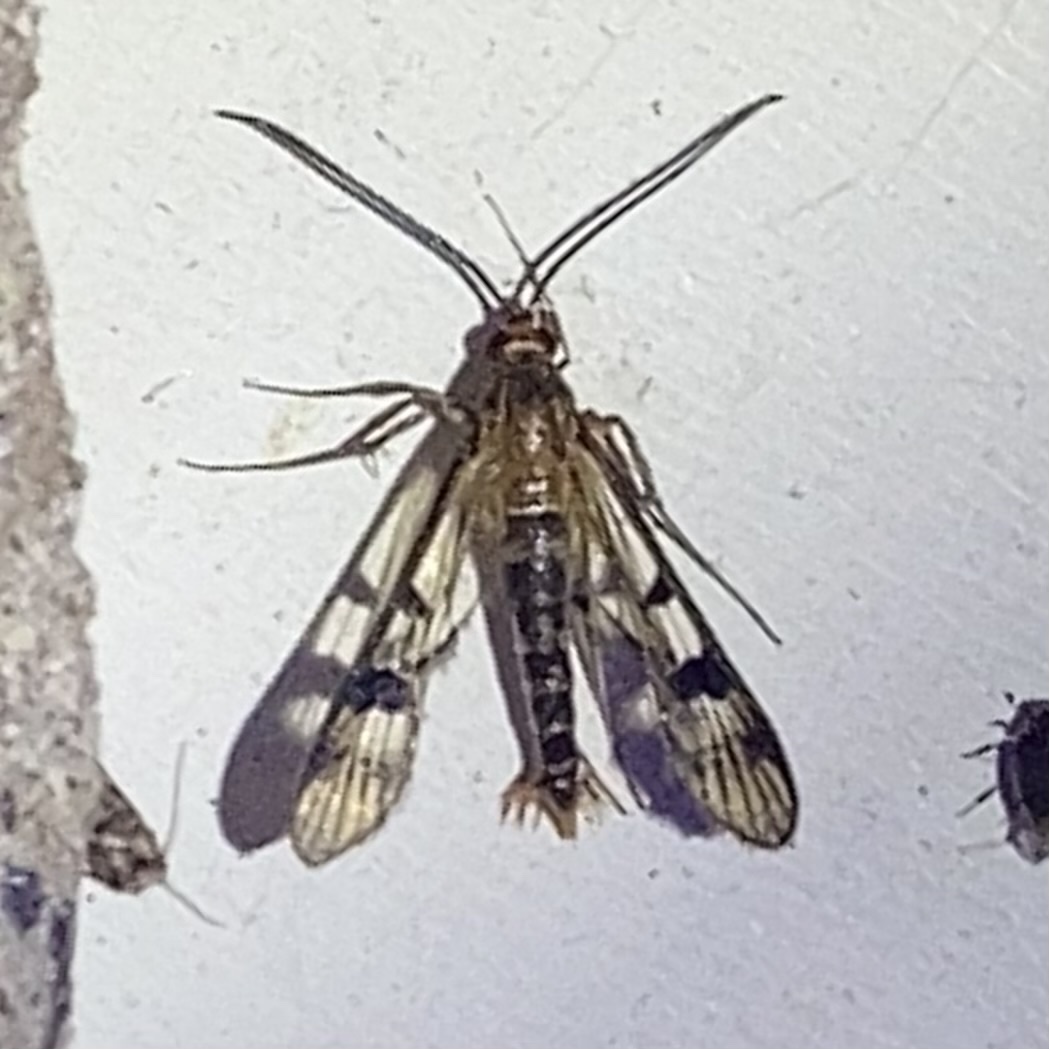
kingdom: Animalia
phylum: Arthropoda
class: Insecta
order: Lepidoptera
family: Sesiidae
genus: Synanthedon
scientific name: Synanthedon acerni
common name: Maple callus borer moth
